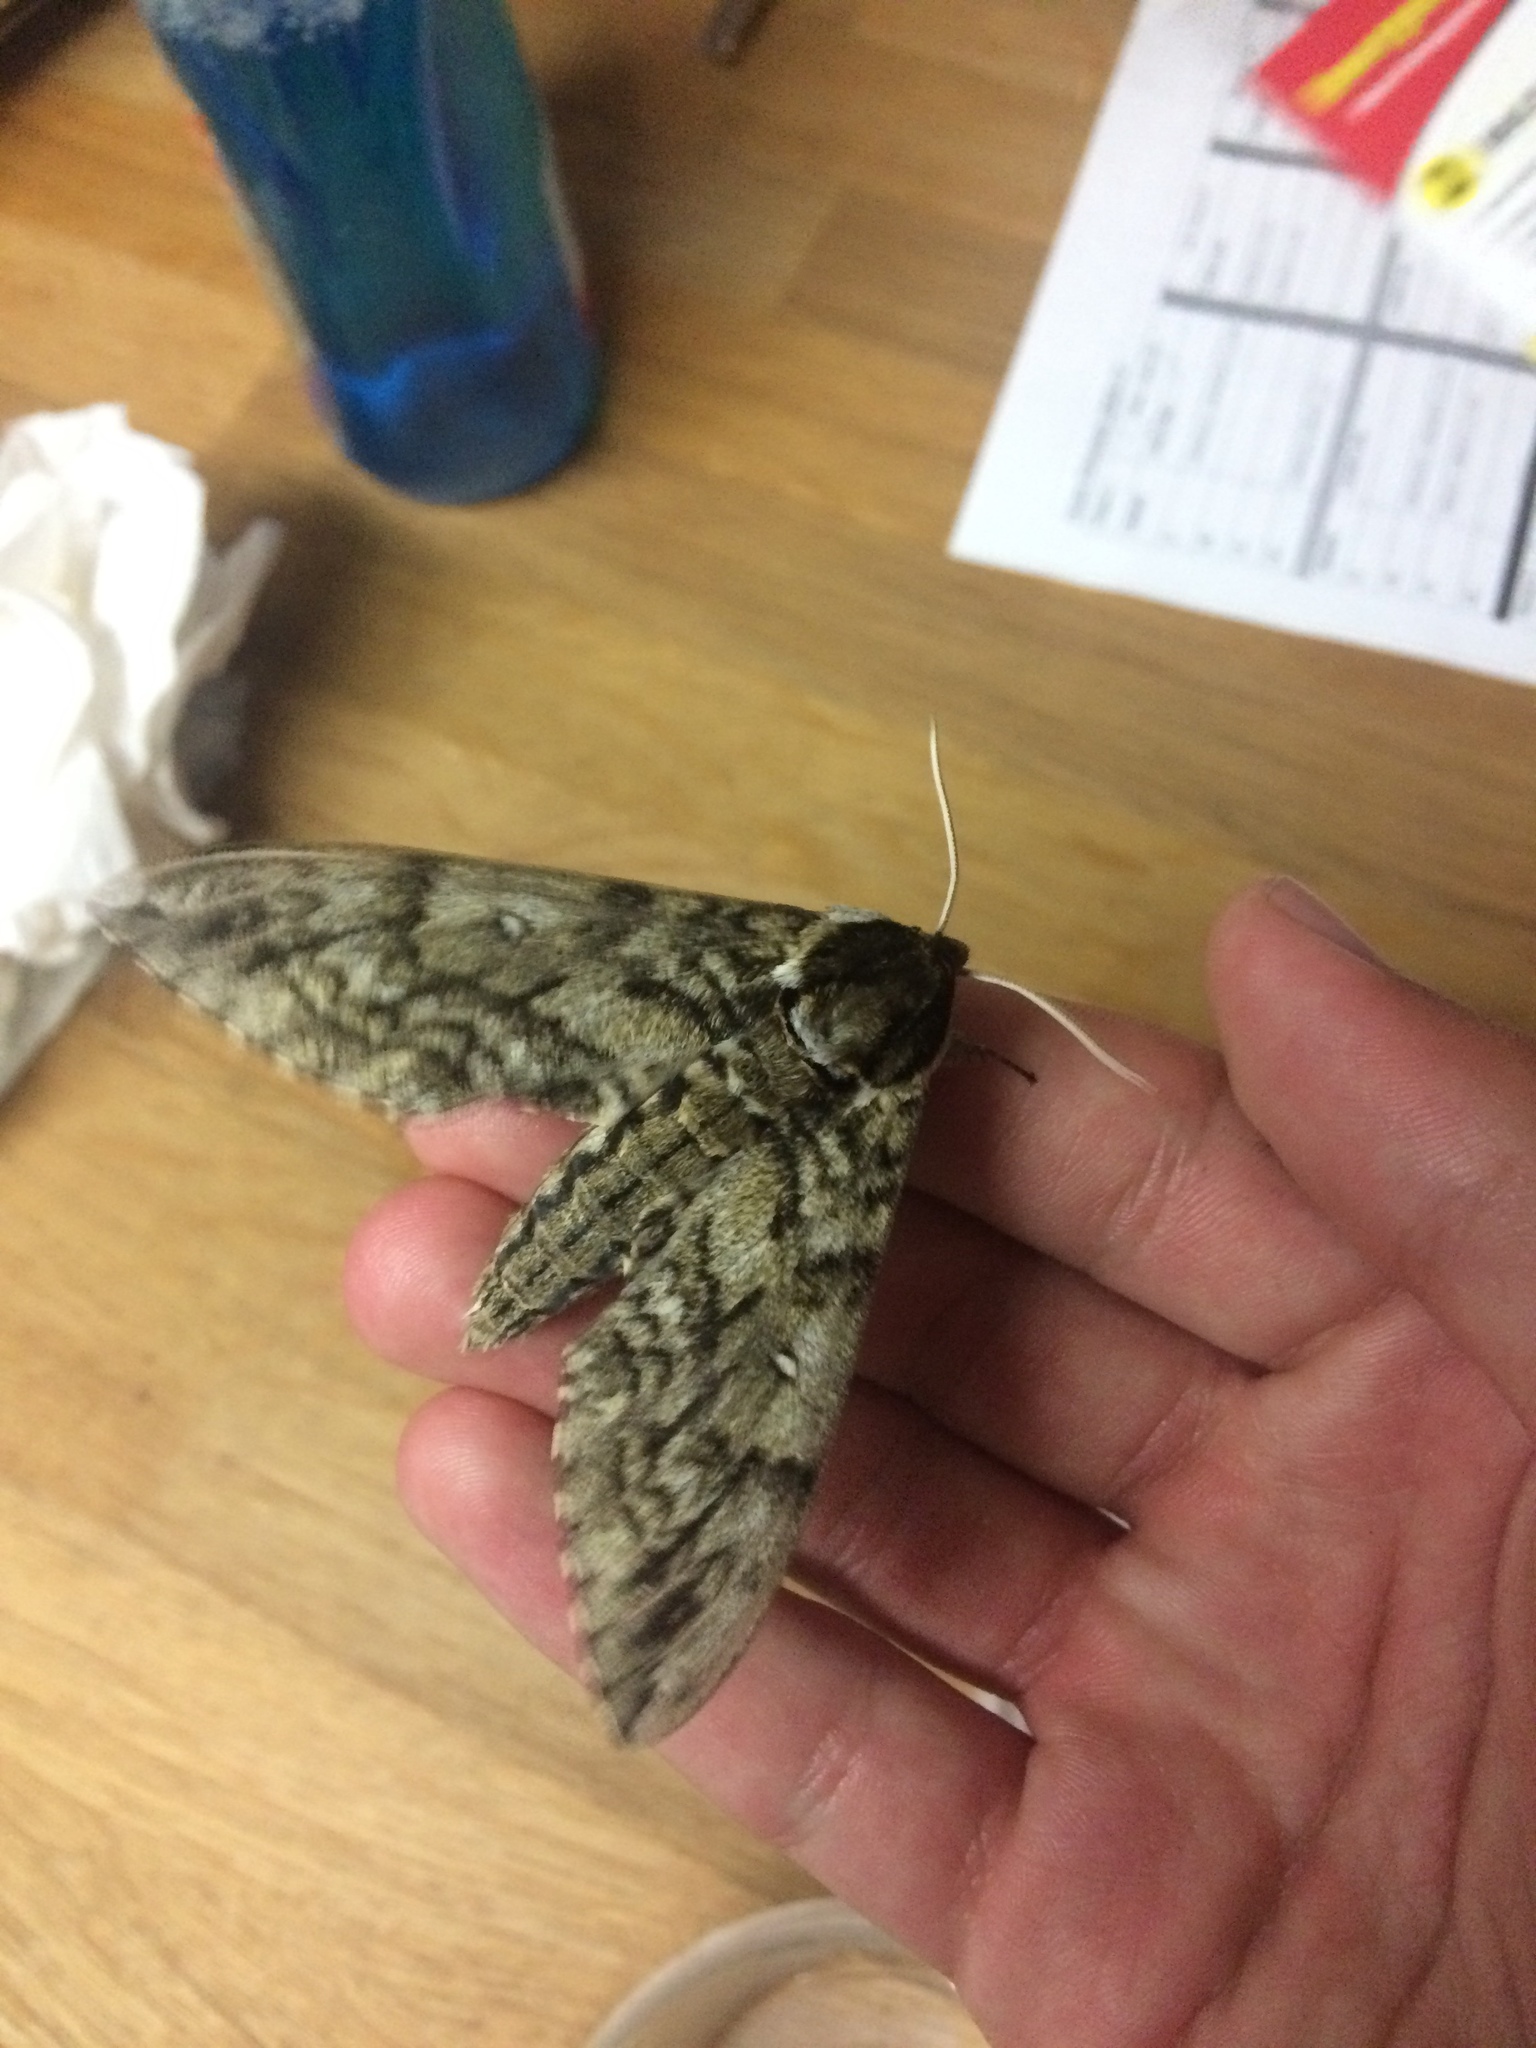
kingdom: Animalia
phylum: Arthropoda
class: Insecta
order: Lepidoptera
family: Sphingidae
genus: Ceratomia
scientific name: Ceratomia undulosa
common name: Waved sphinx
